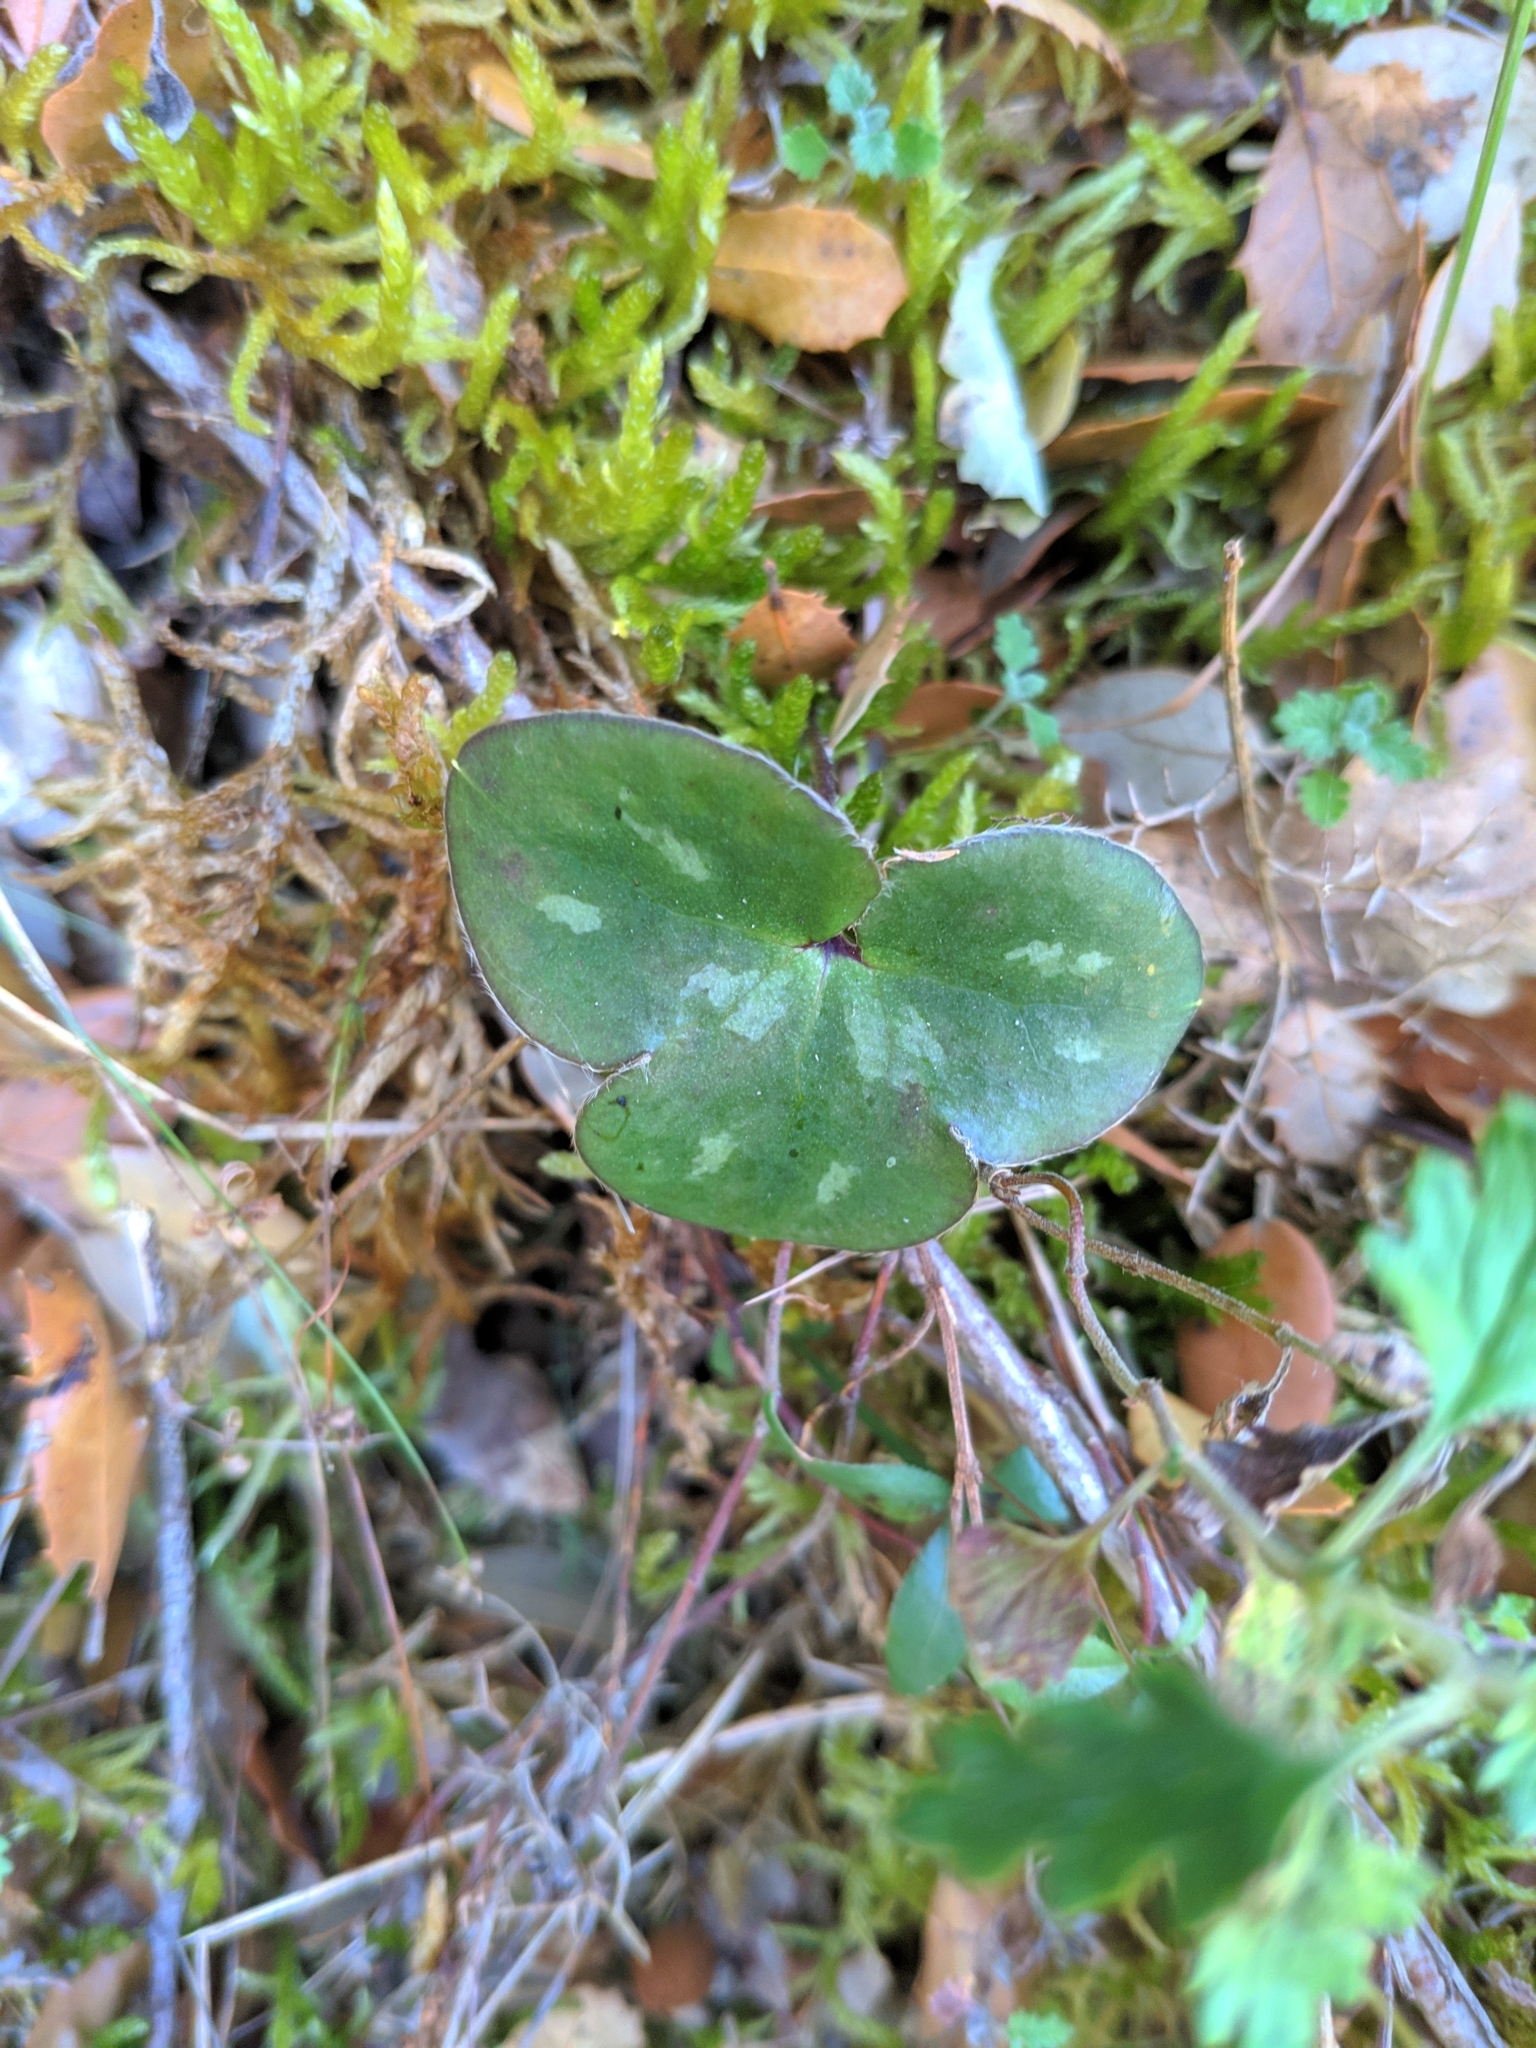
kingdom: Plantae
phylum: Tracheophyta
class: Magnoliopsida
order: Ranunculales
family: Ranunculaceae
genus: Hepatica
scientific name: Hepatica nobilis
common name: Liverleaf
